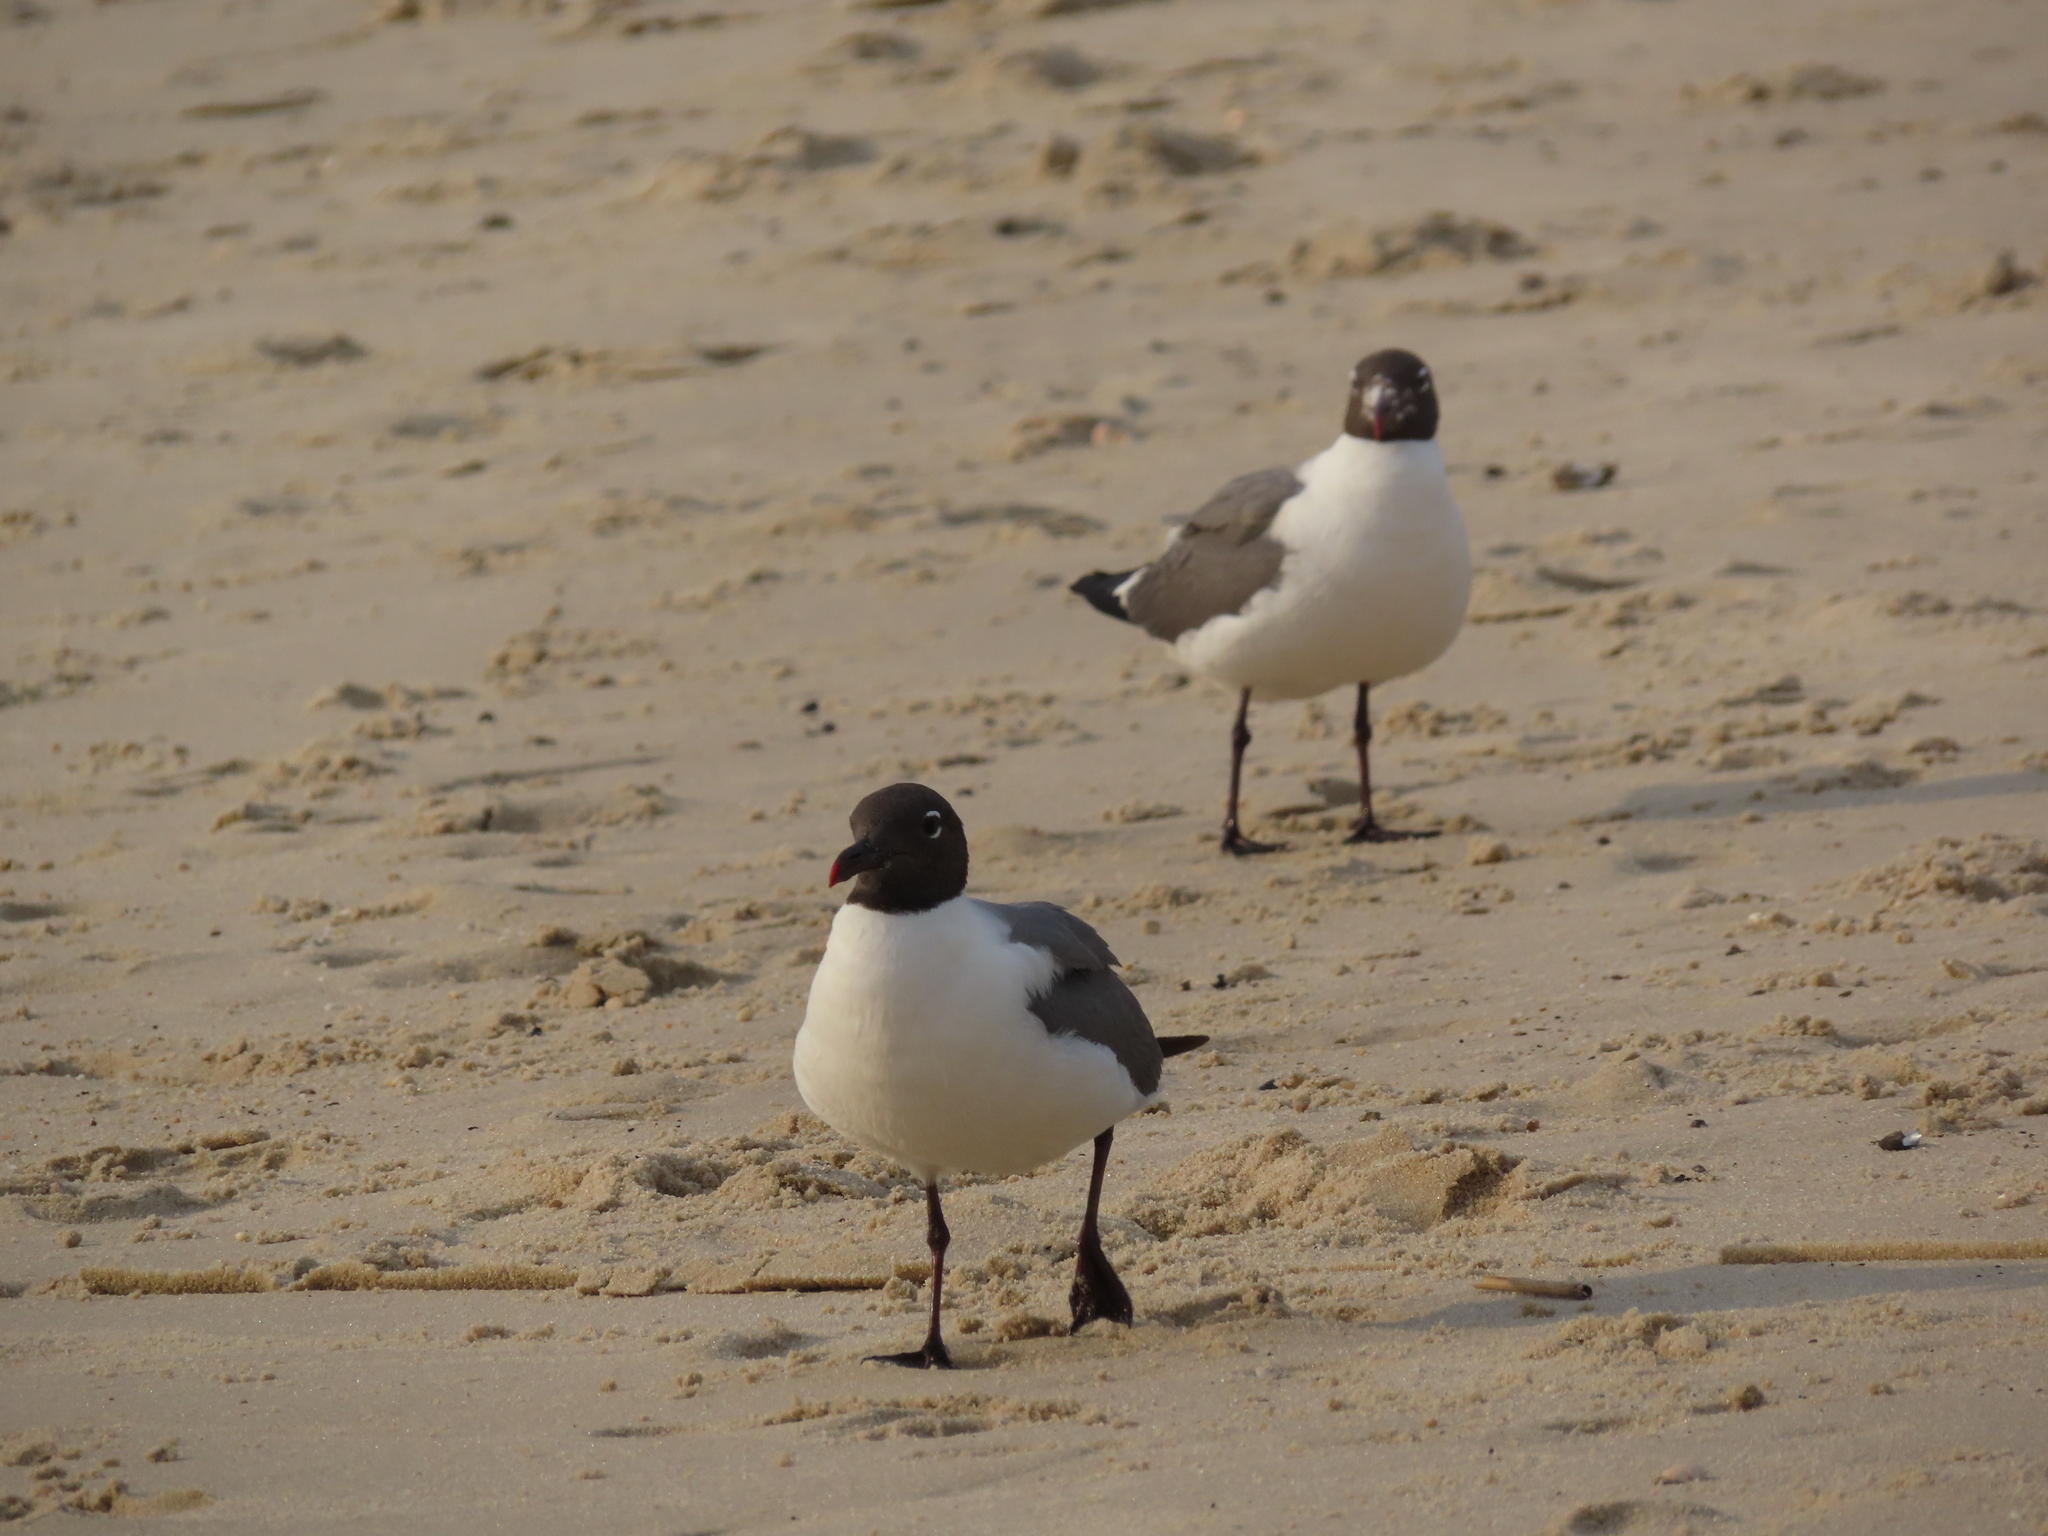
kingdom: Animalia
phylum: Chordata
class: Aves
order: Charadriiformes
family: Laridae
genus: Leucophaeus
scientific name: Leucophaeus atricilla
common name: Laughing gull
